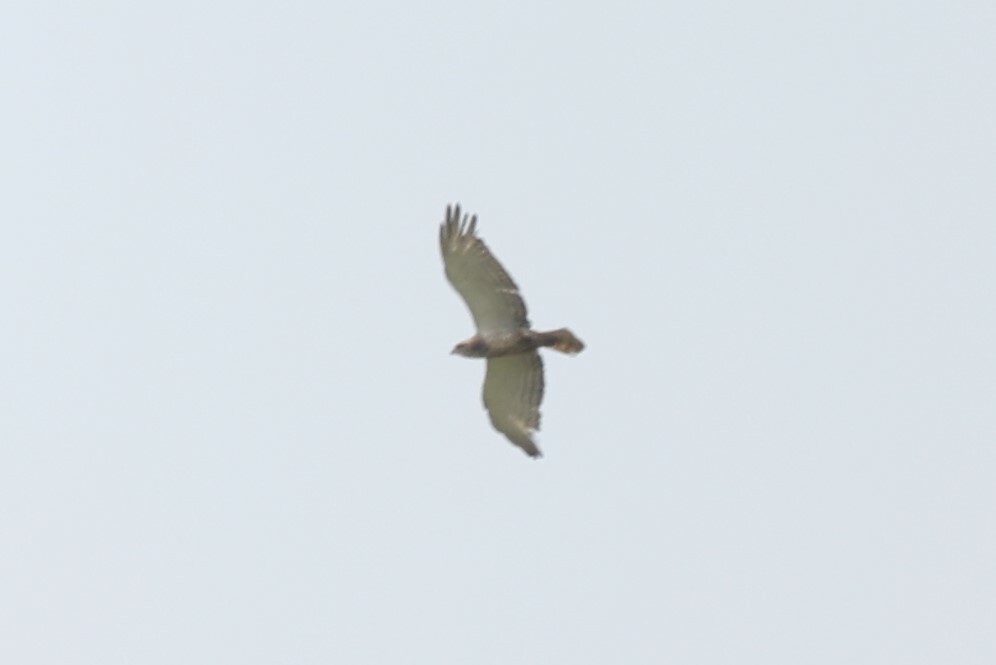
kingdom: Animalia
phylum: Chordata
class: Aves
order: Accipitriformes
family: Accipitridae
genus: Circaetus
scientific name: Circaetus beaudouini
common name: Beaudouin's snake eagle
